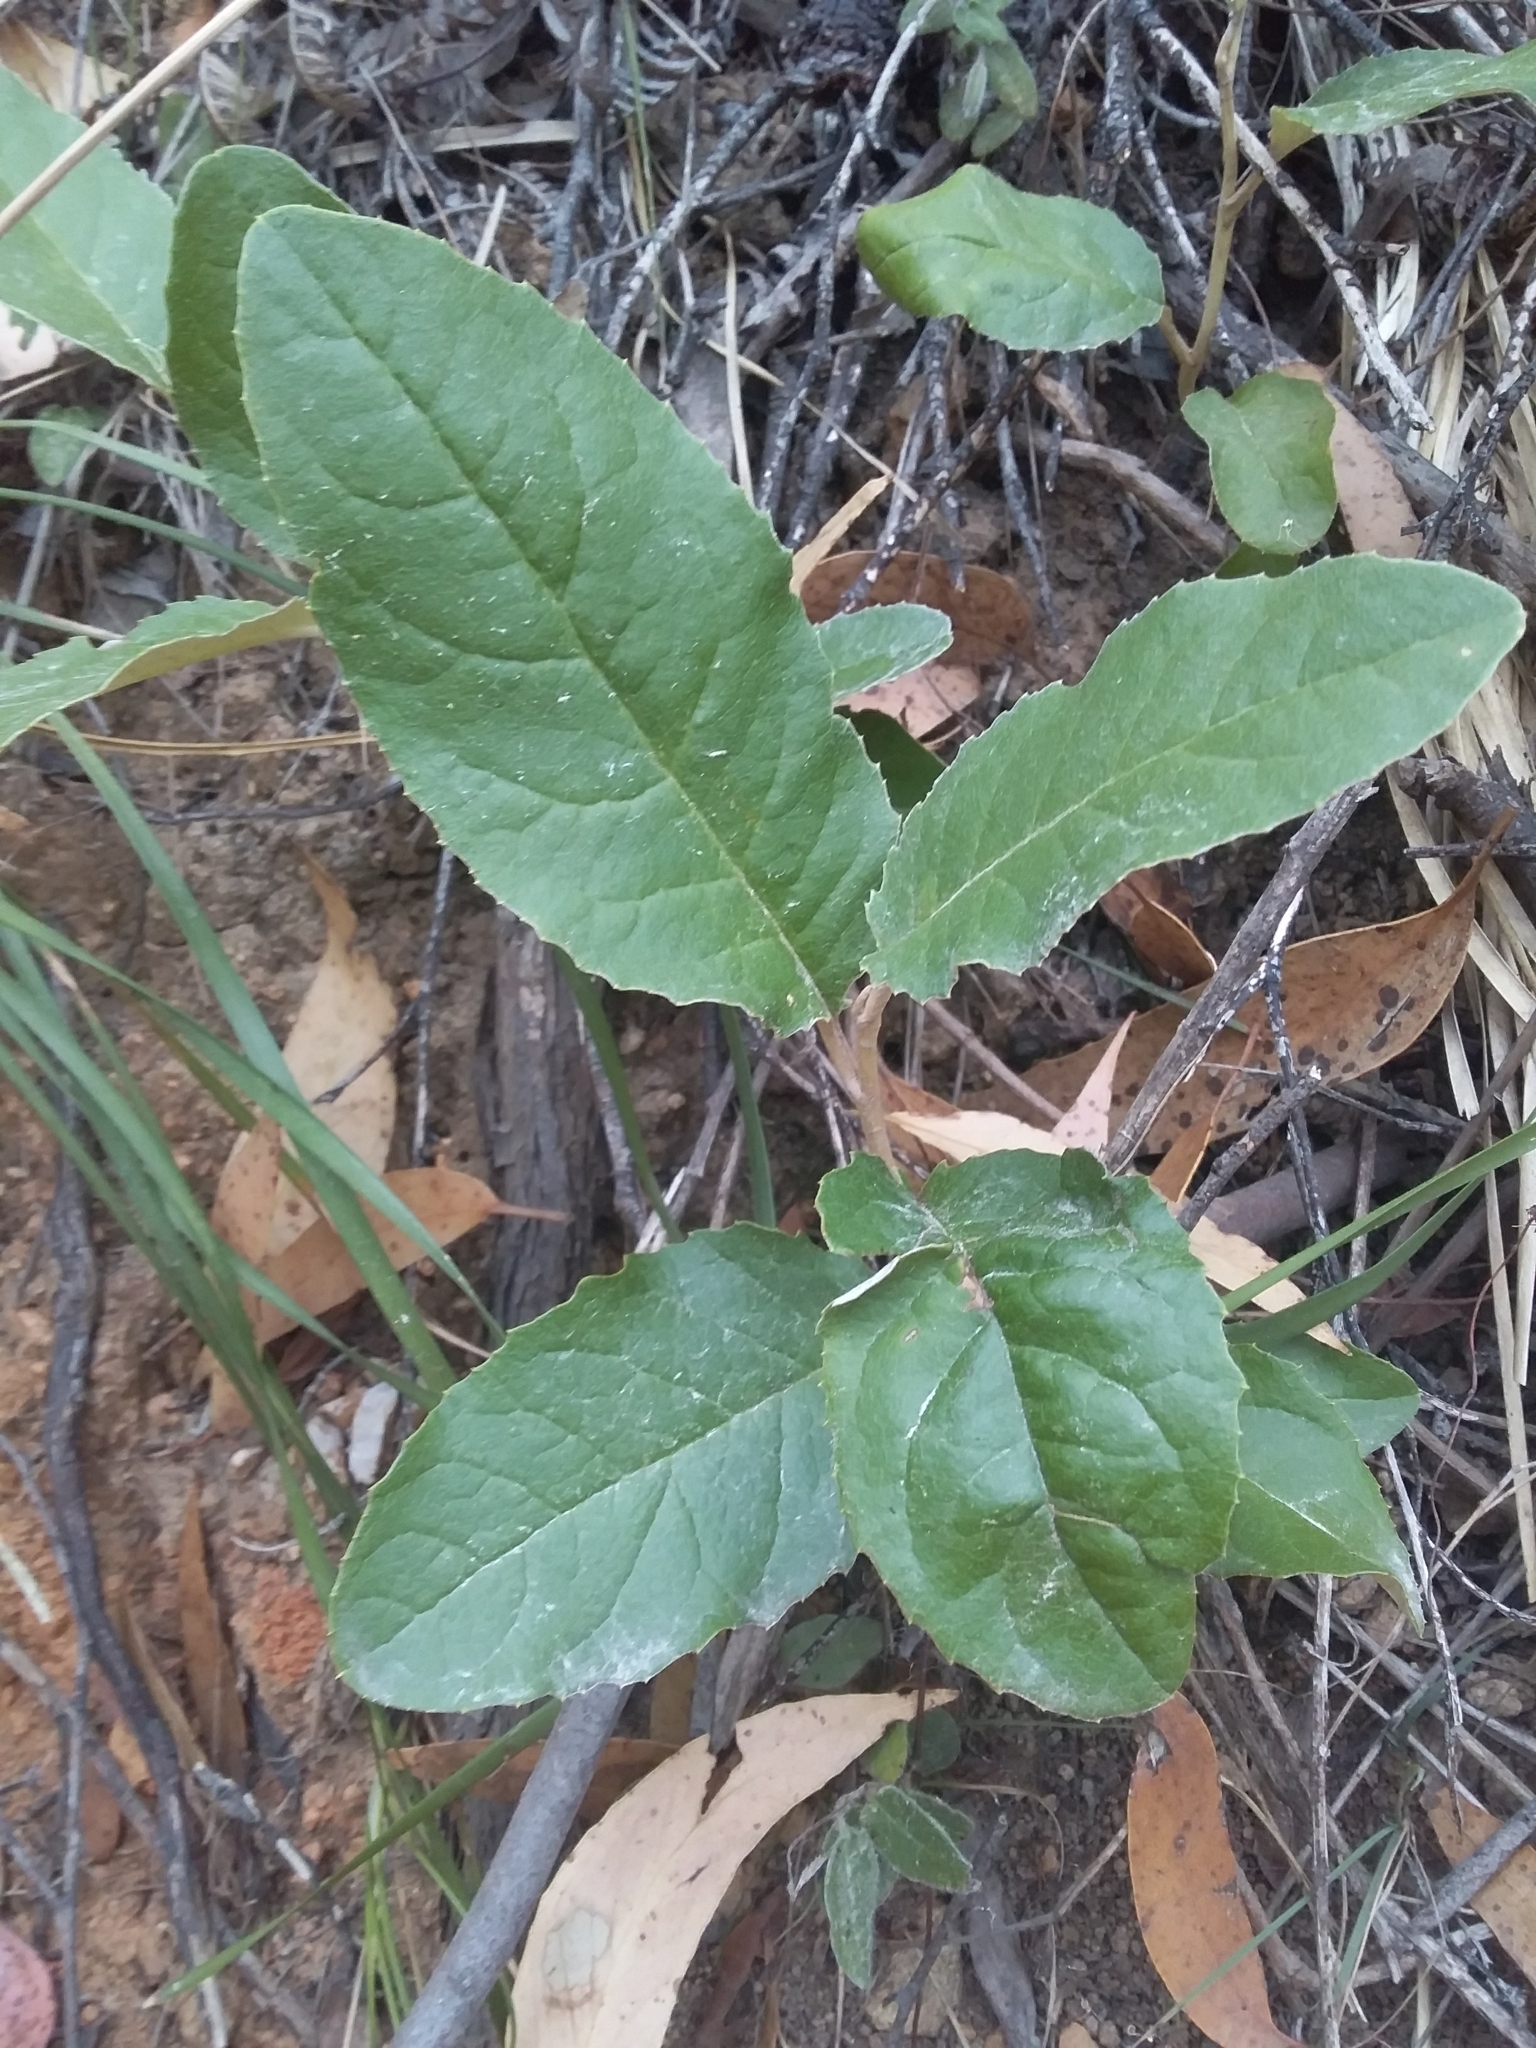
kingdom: Plantae
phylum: Tracheophyta
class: Magnoliopsida
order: Asterales
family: Asteraceae
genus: Olearia
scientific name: Olearia grandiflora
